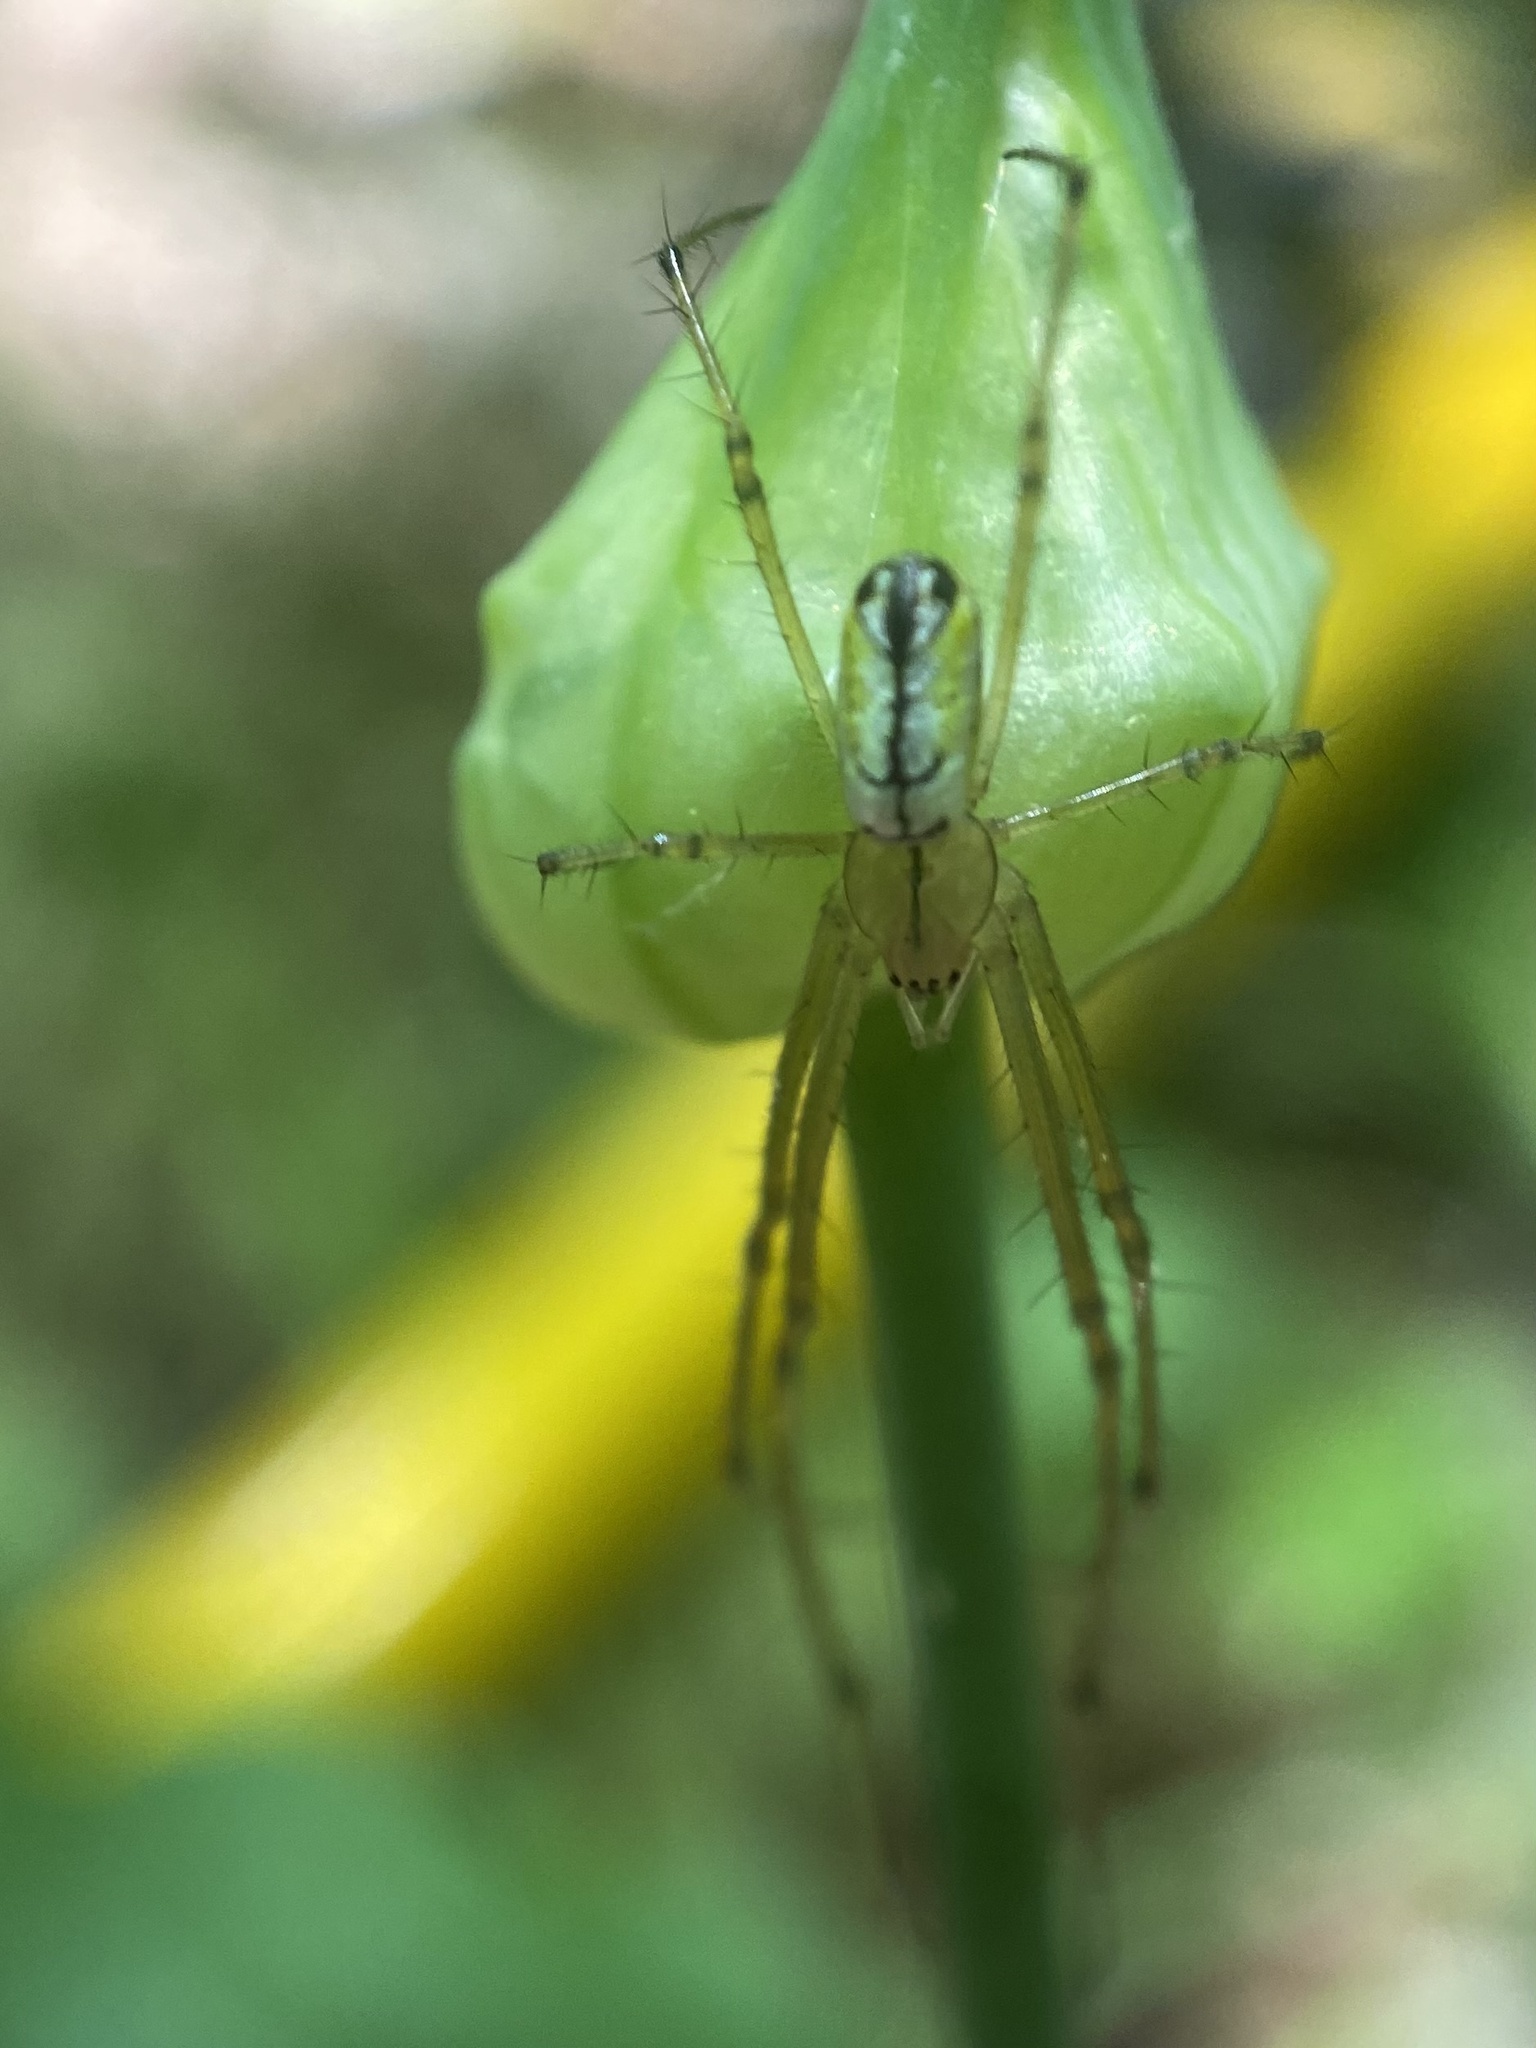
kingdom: Animalia
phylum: Arthropoda
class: Arachnida
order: Araneae
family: Tetragnathidae
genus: Leucauge
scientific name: Leucauge venusta
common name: Longjawed orb weavers
